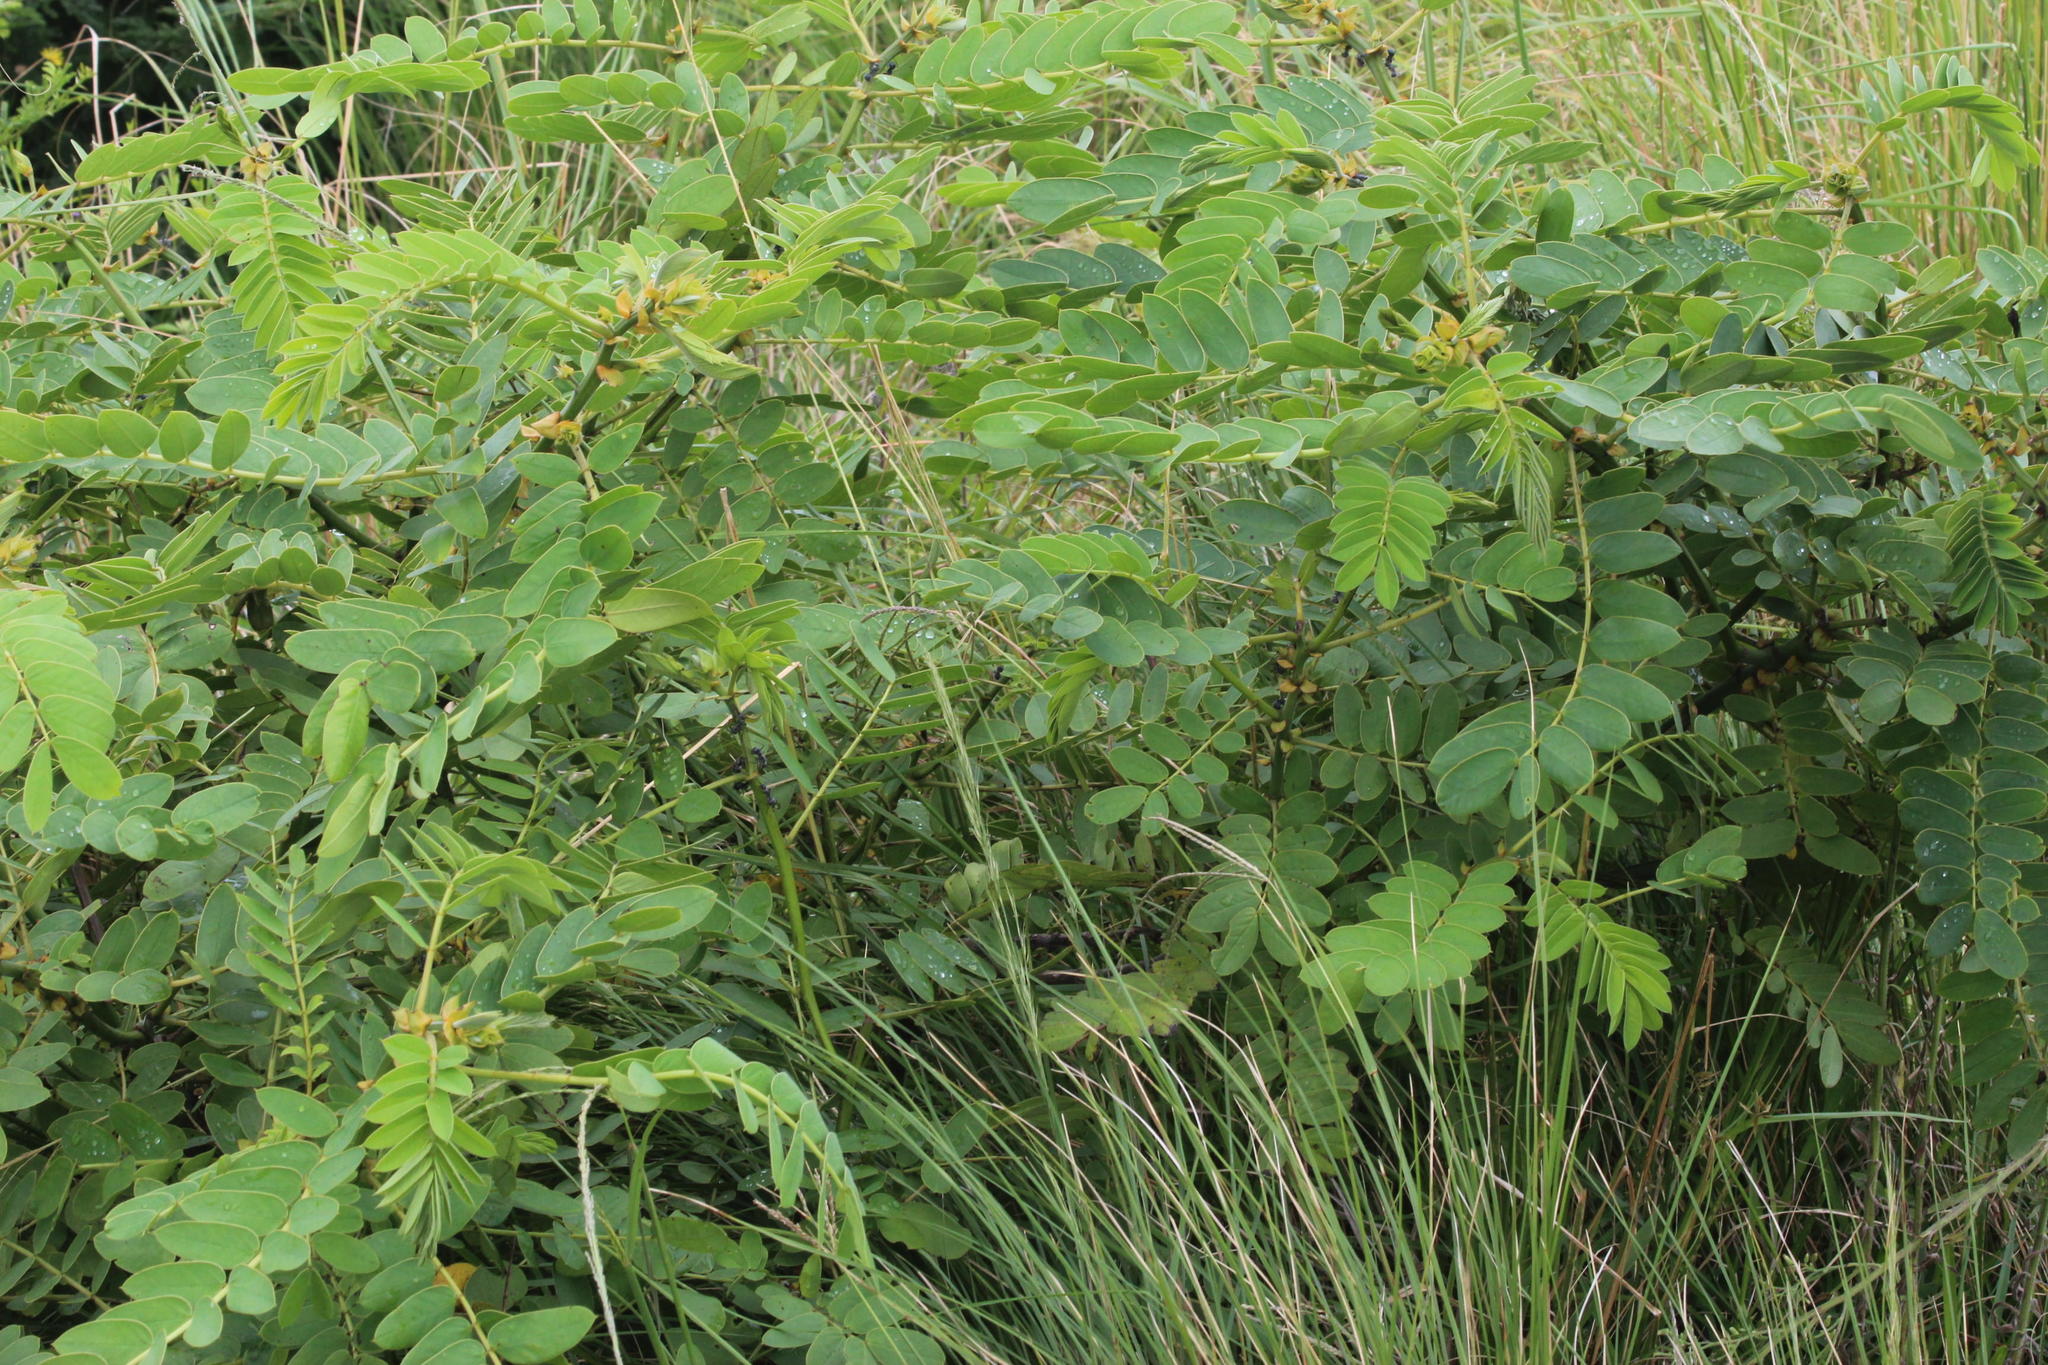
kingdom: Plantae
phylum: Tracheophyta
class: Magnoliopsida
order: Fabales
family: Fabaceae
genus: Senna
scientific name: Senna didymobotrya
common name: African senna
